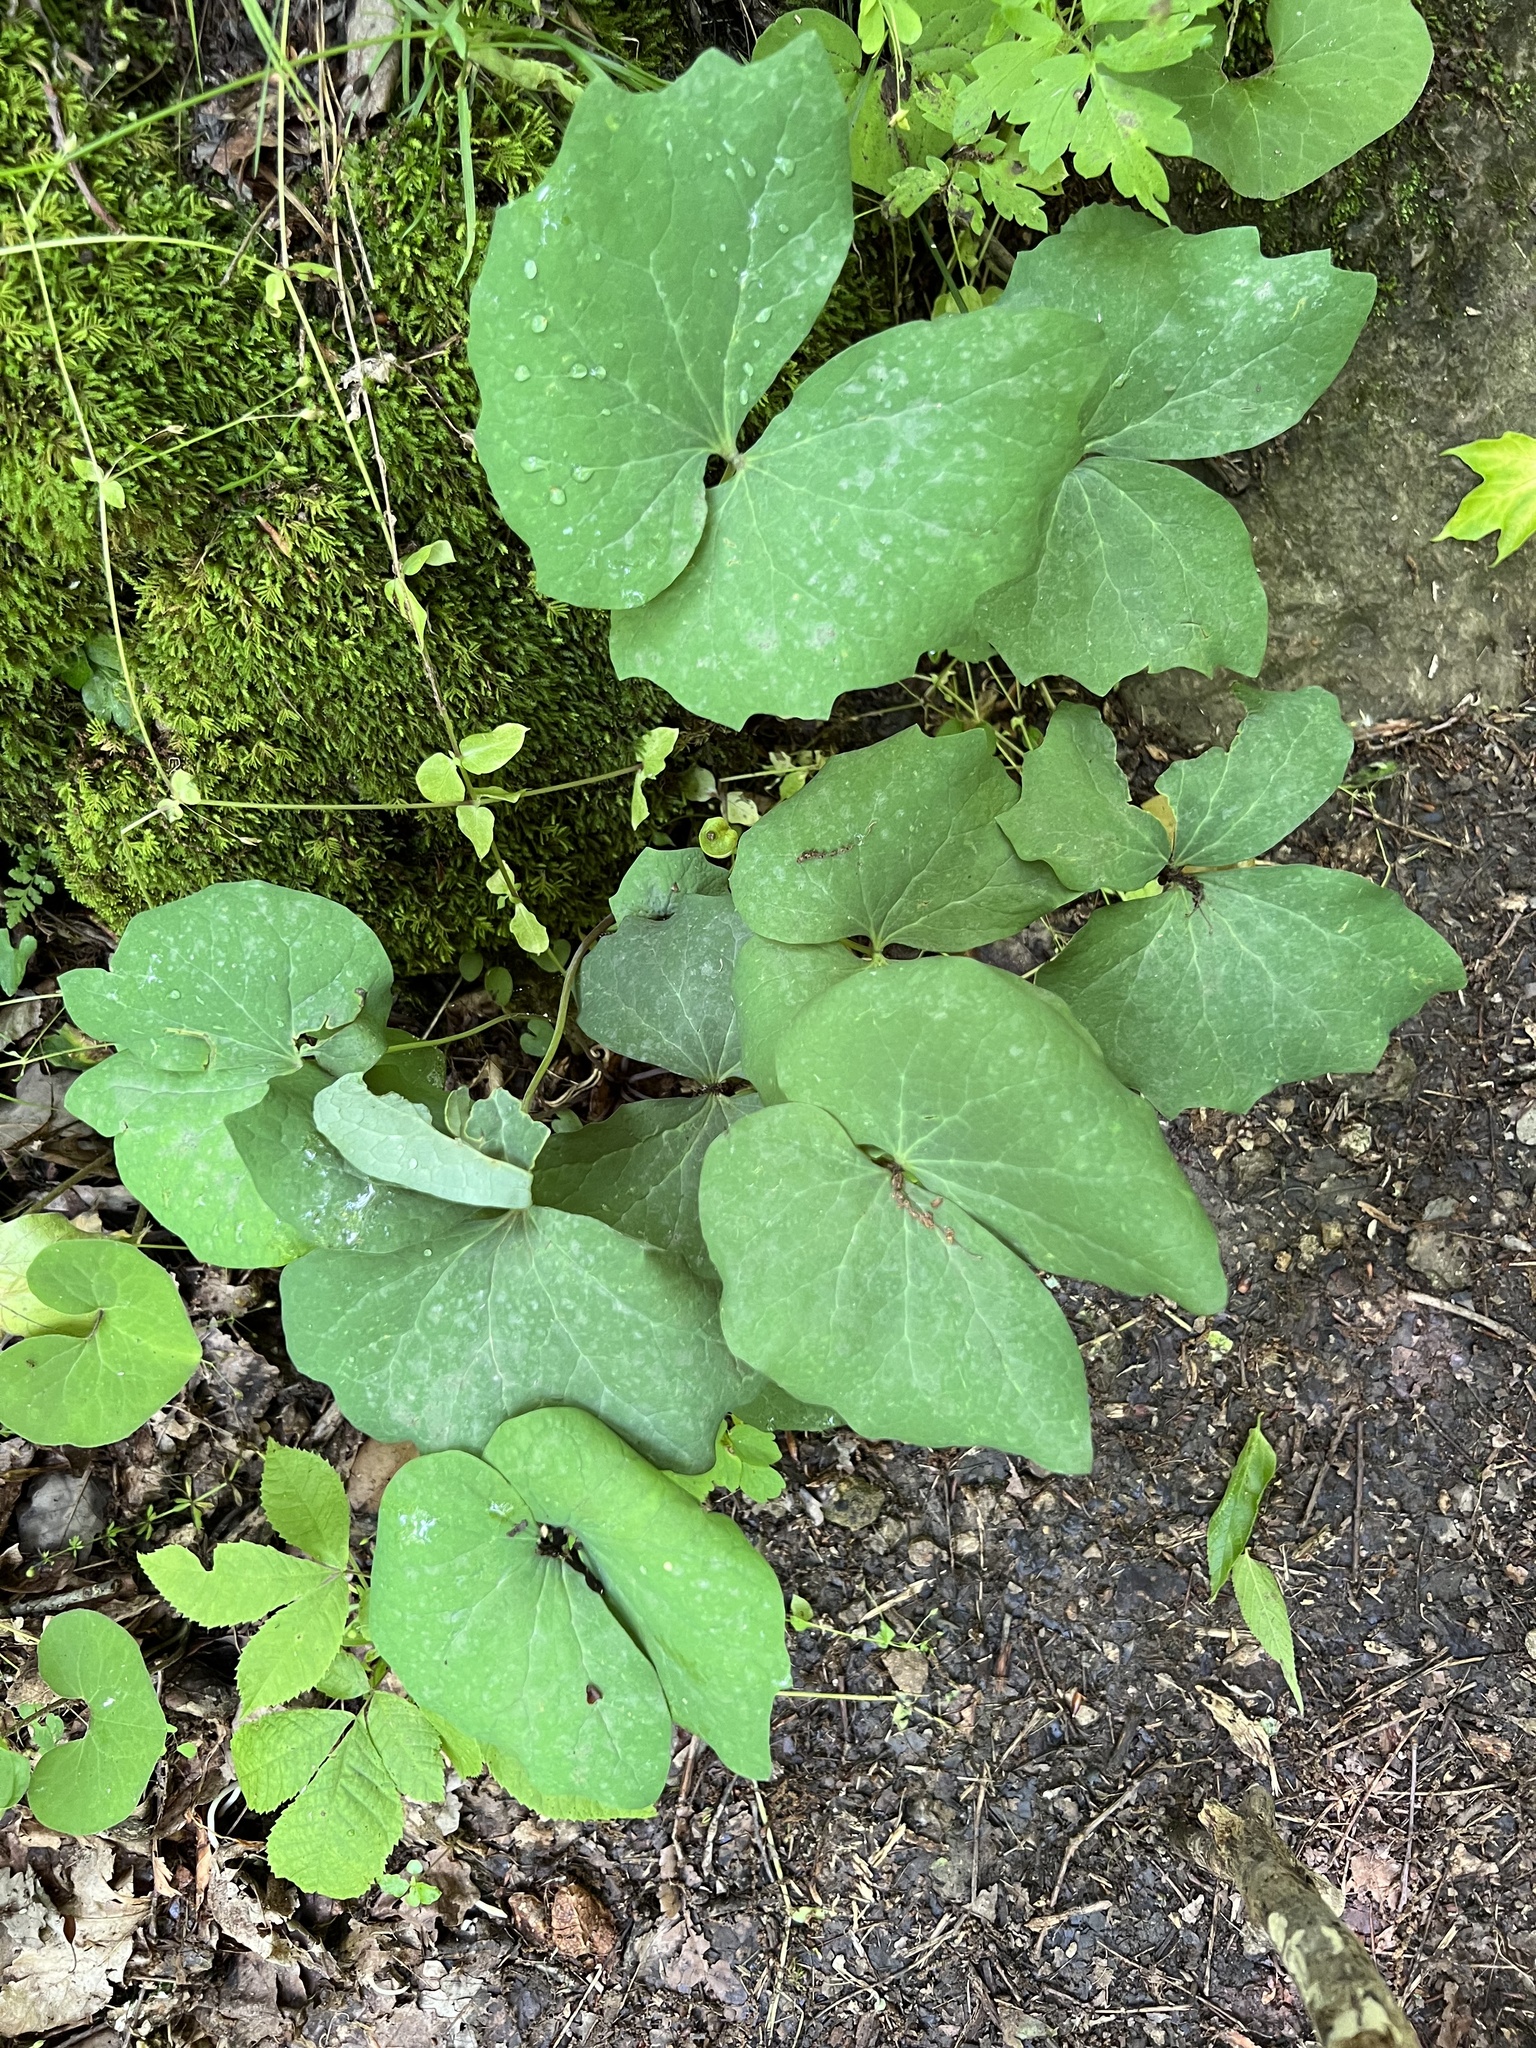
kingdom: Plantae
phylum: Tracheophyta
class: Magnoliopsida
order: Ranunculales
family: Berberidaceae
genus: Jeffersonia
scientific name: Jeffersonia diphylla
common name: Rheumatism-root
